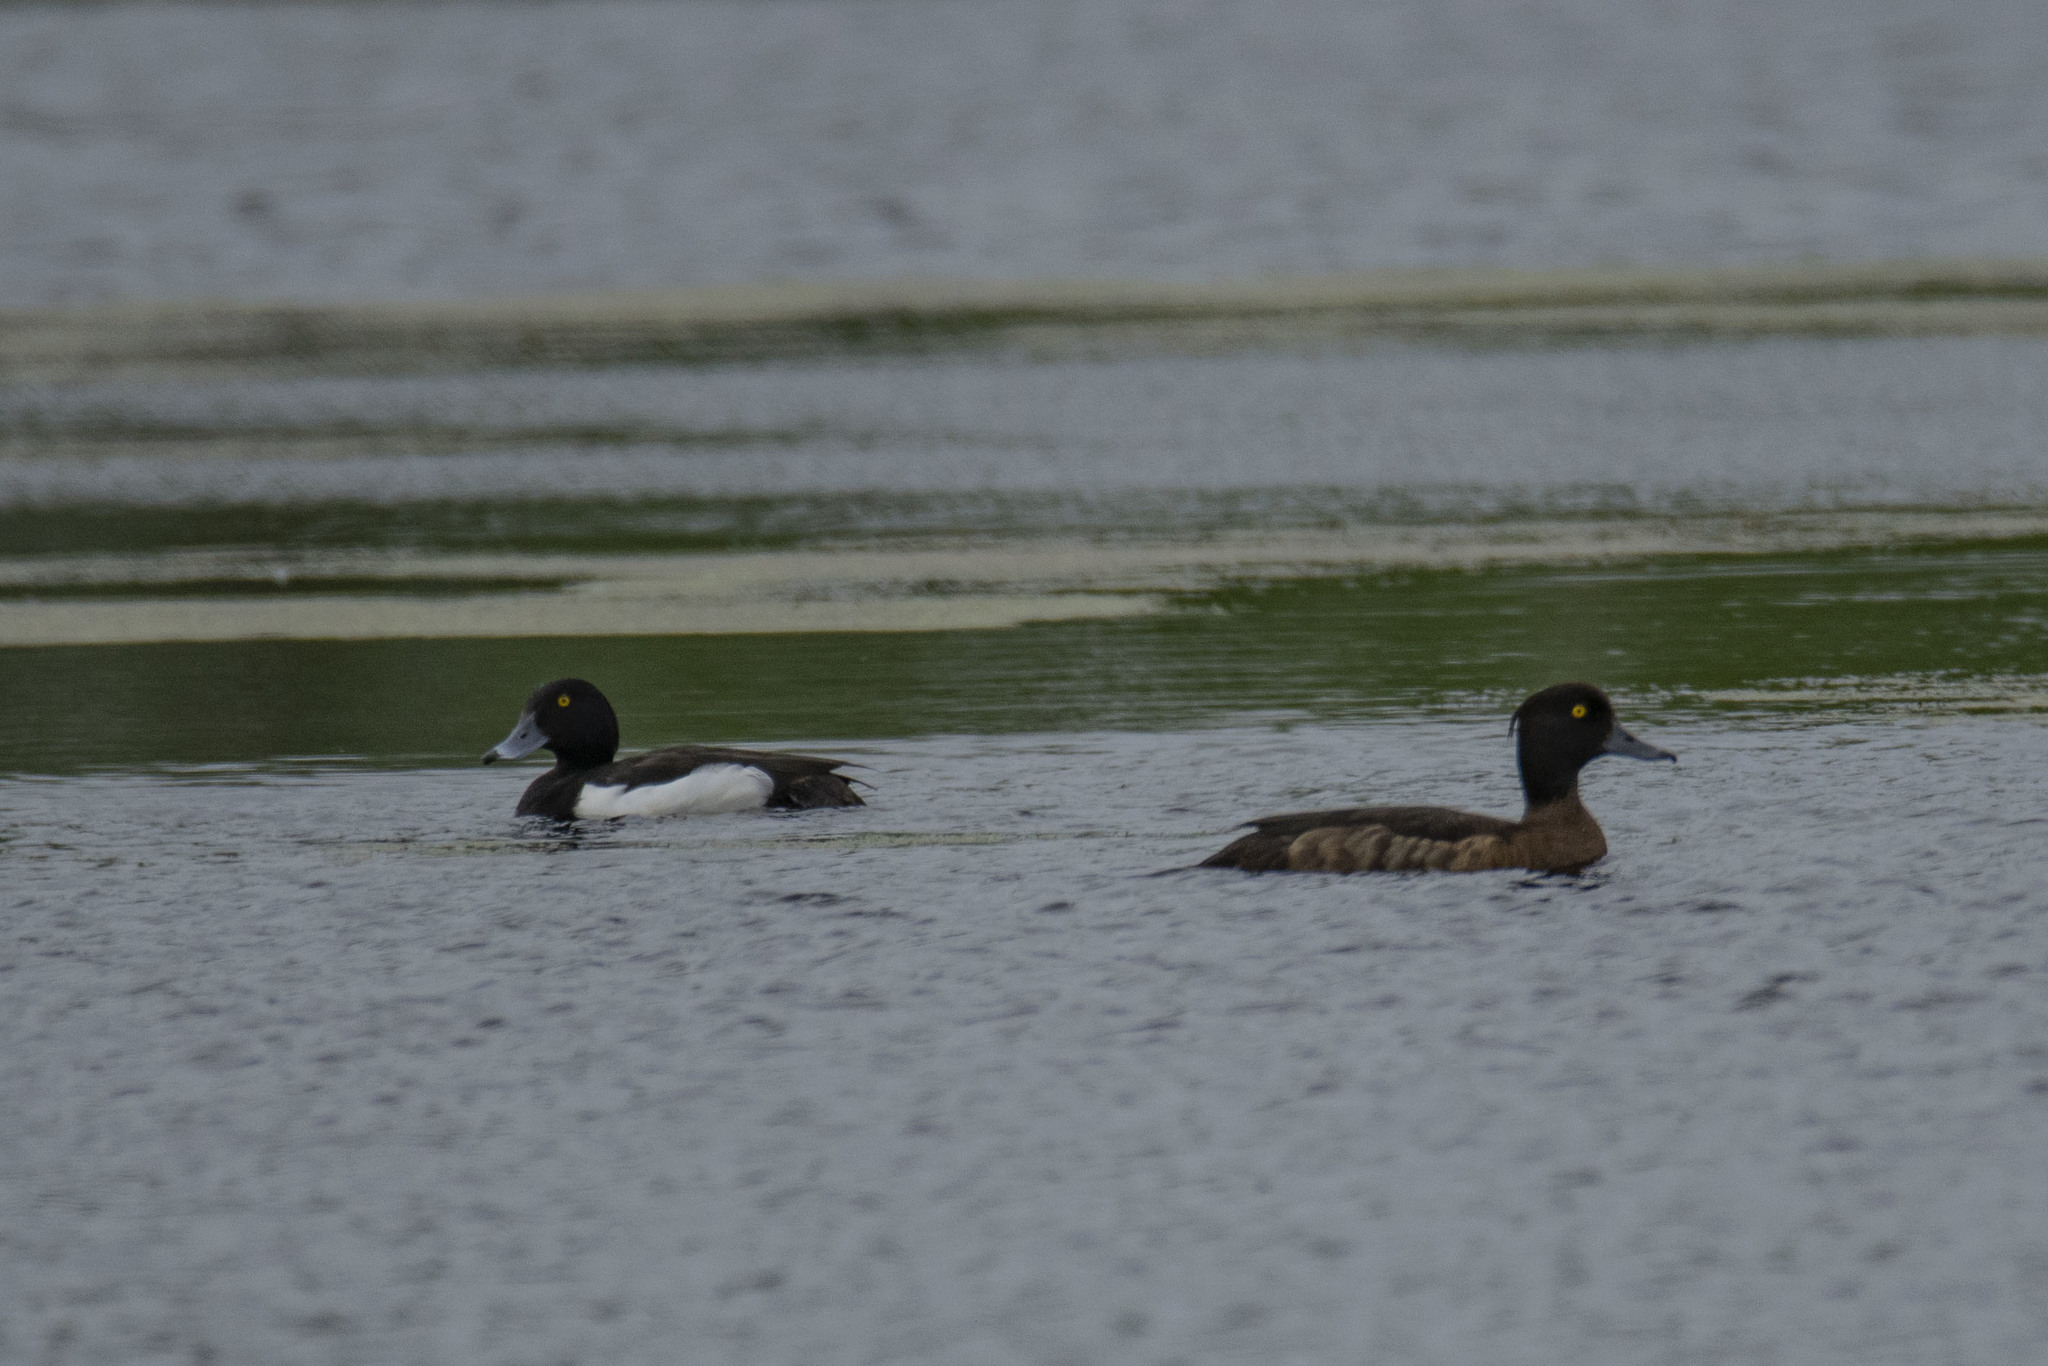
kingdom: Animalia
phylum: Chordata
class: Aves
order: Anseriformes
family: Anatidae
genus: Aythya
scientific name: Aythya fuligula
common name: Tufted duck
